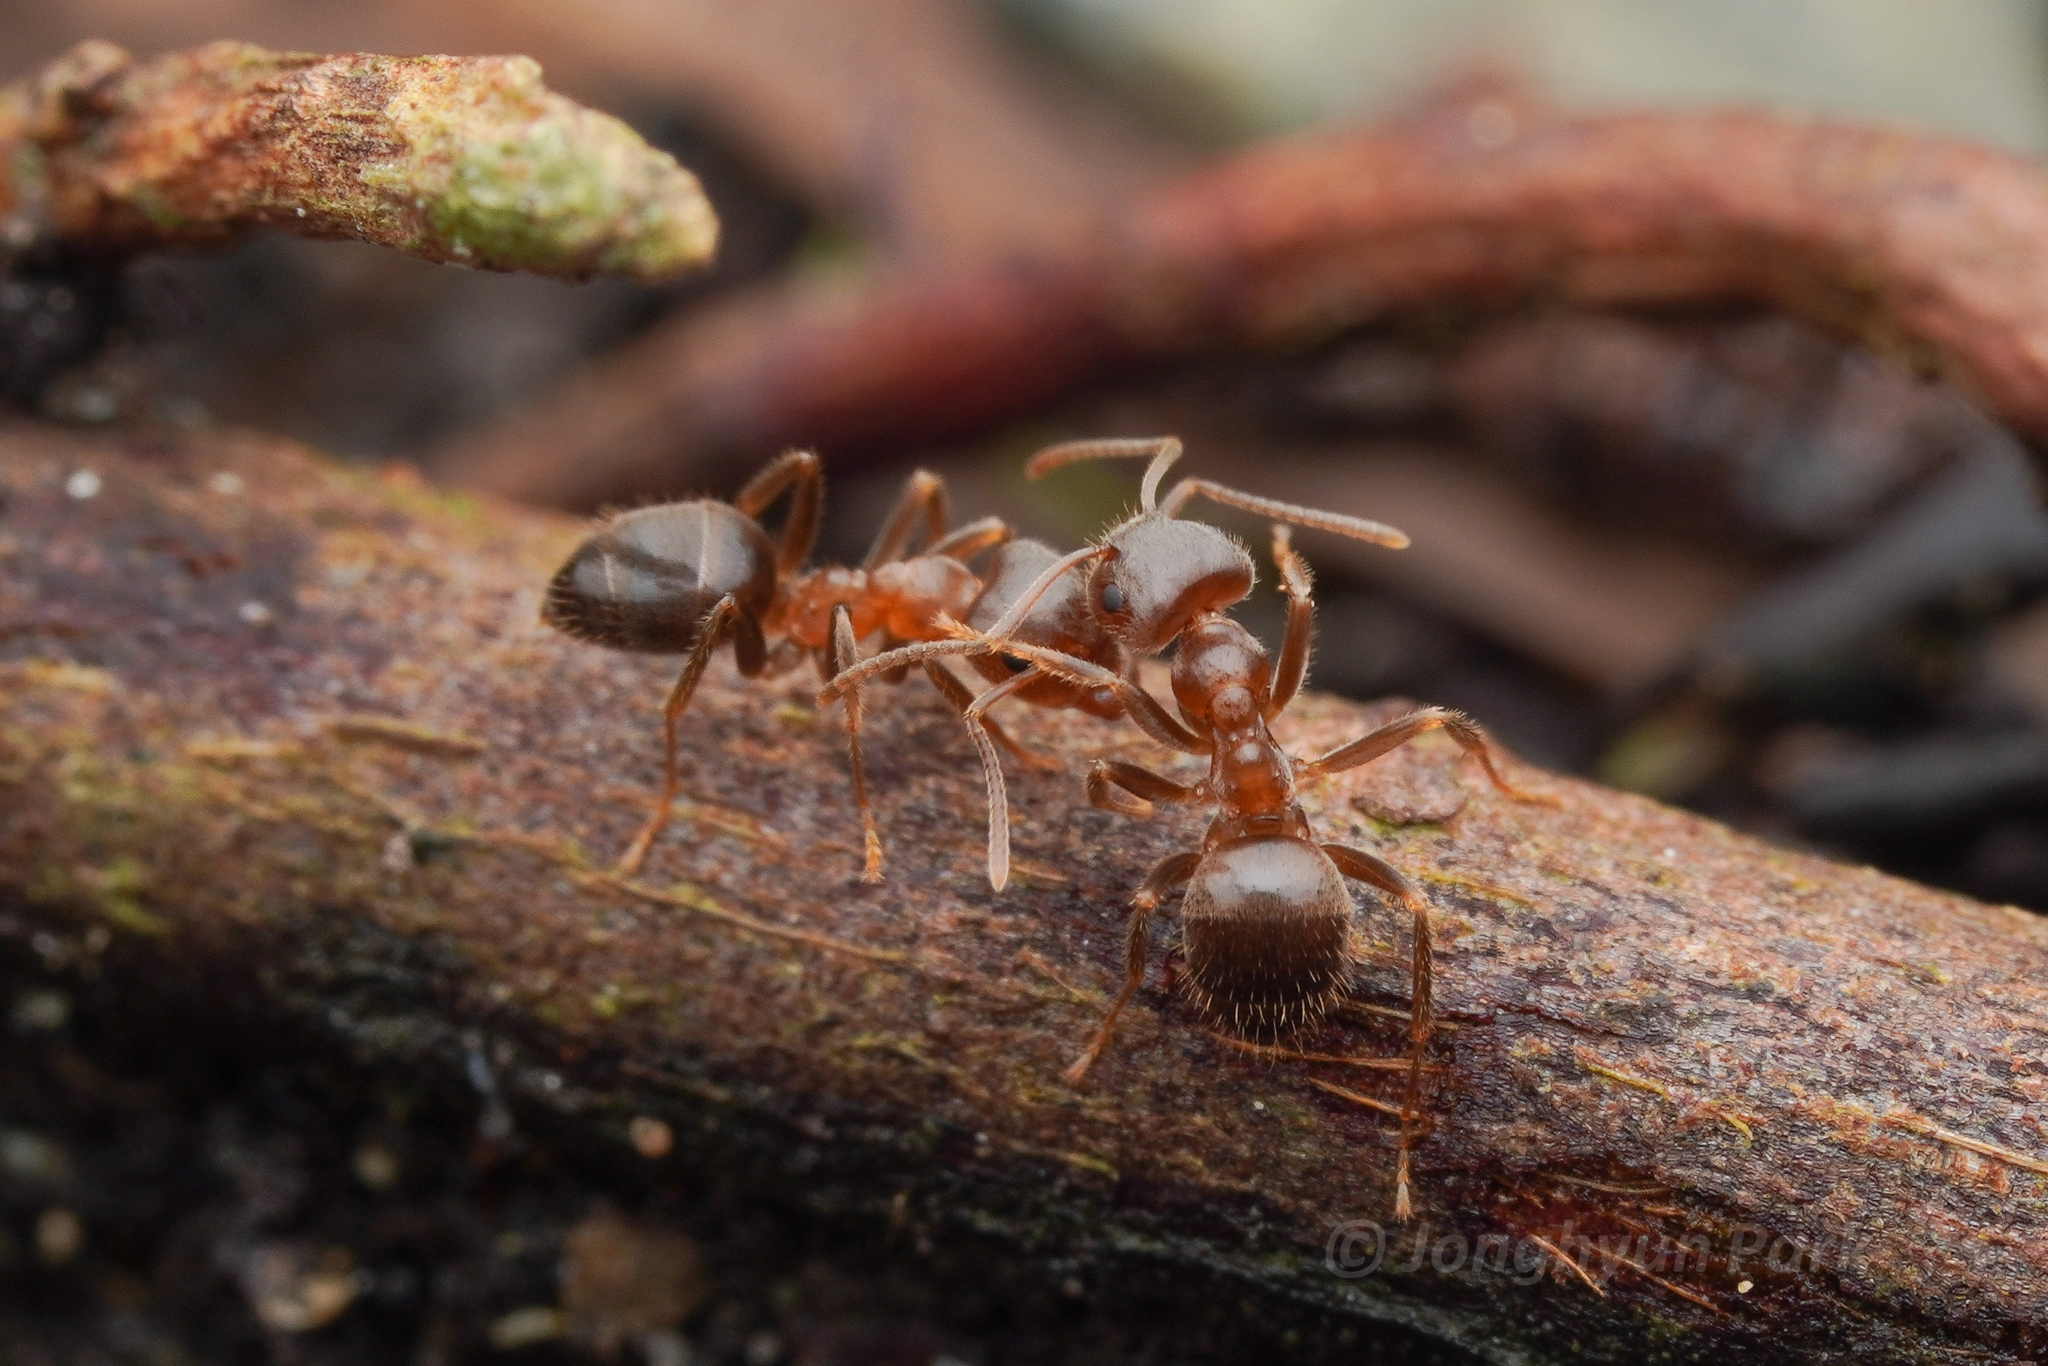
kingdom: Animalia
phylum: Arthropoda
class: Insecta
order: Hymenoptera
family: Formicidae
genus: Lasius
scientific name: Lasius hayashi
